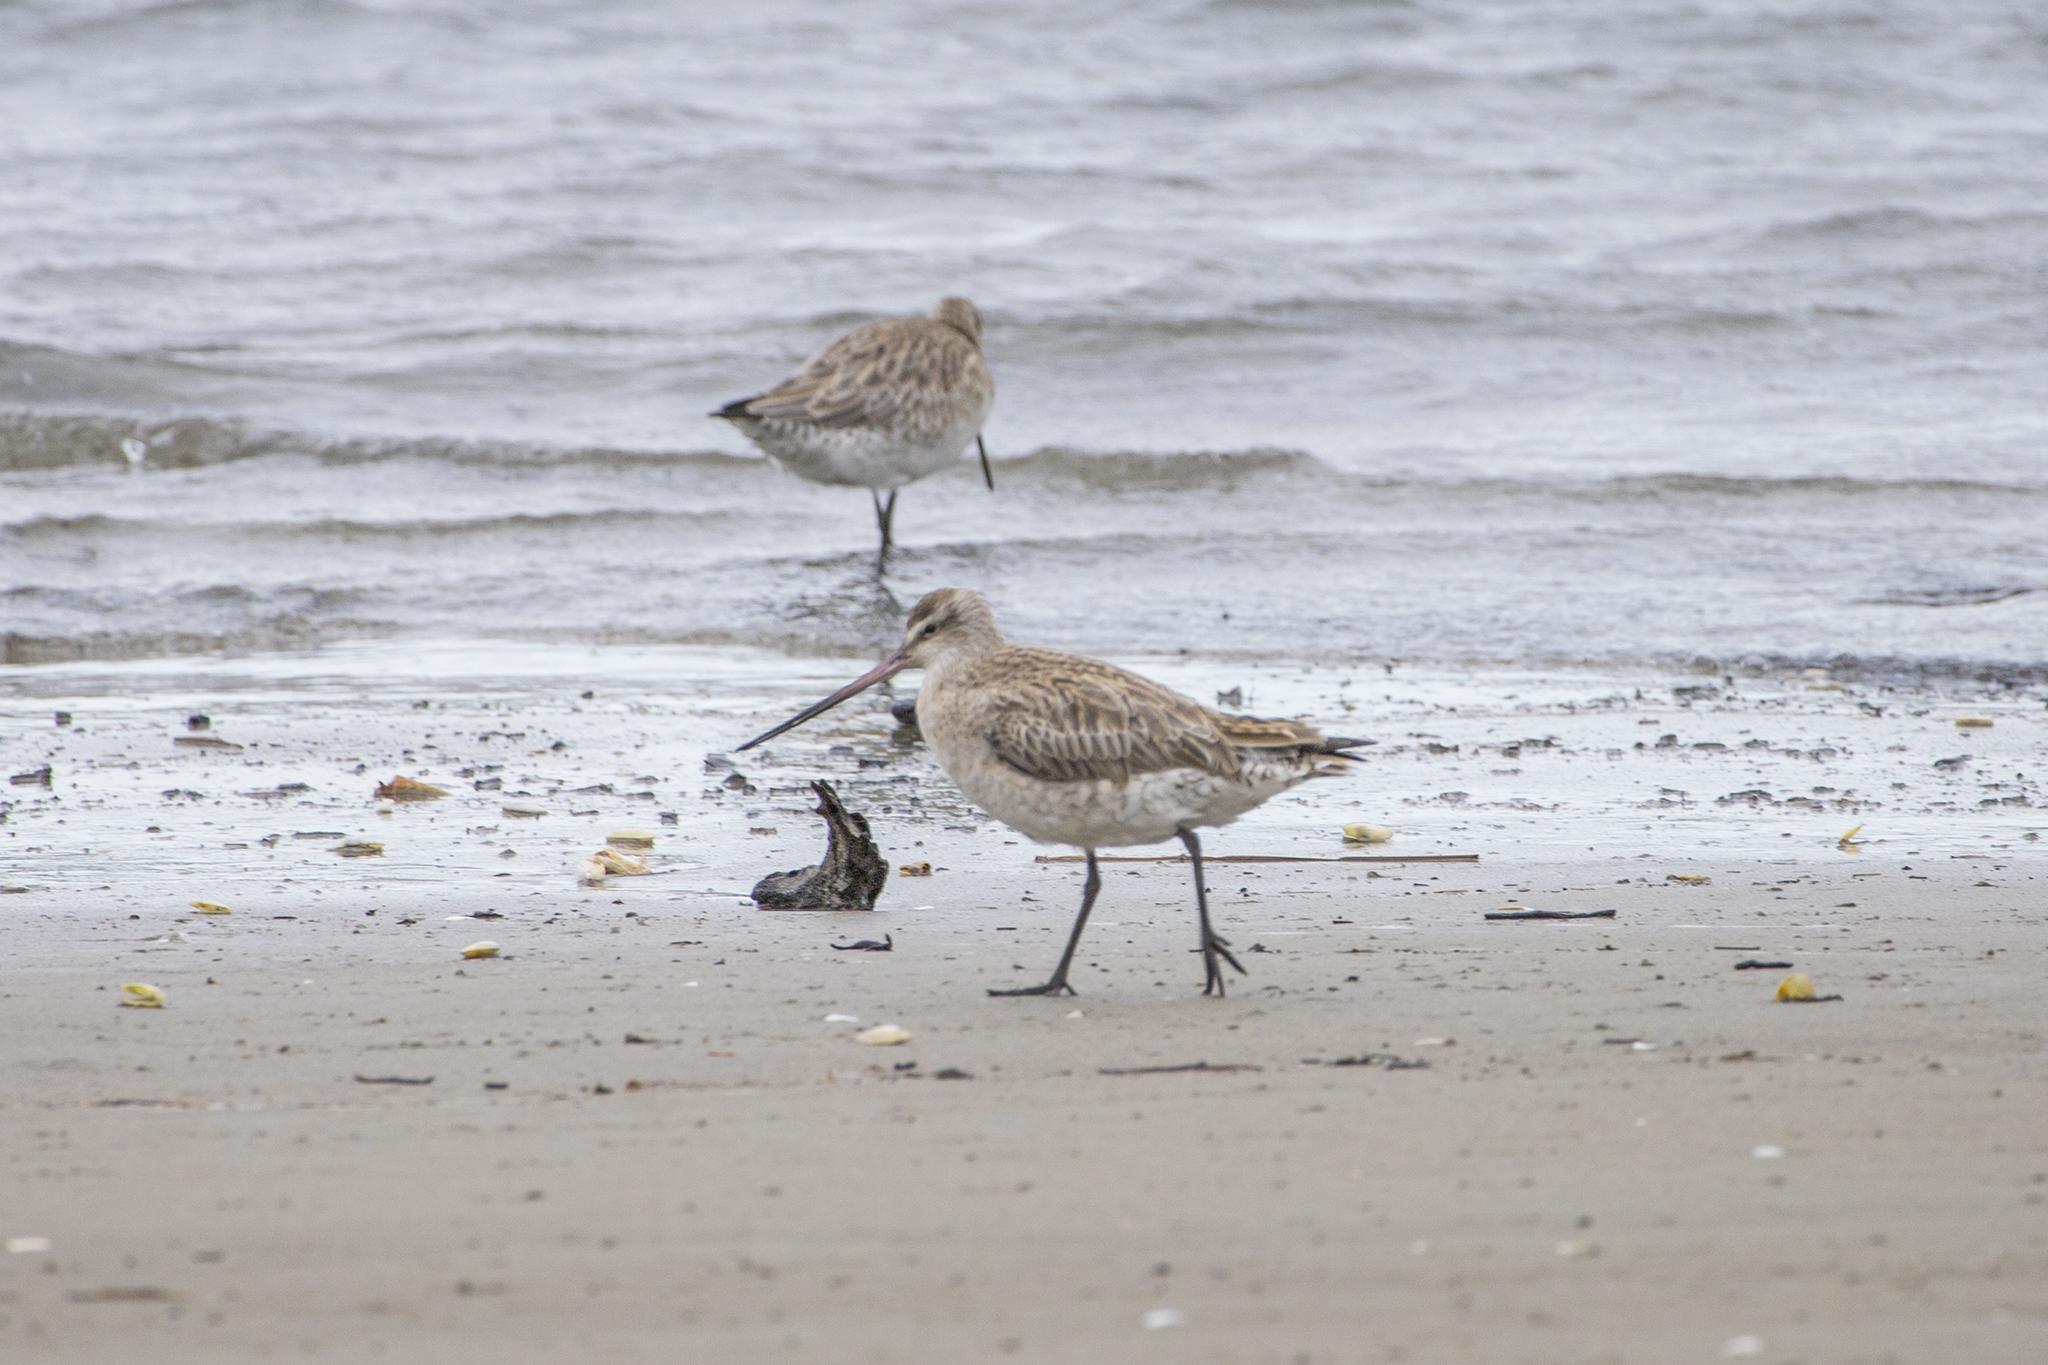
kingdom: Animalia
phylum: Chordata
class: Aves
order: Charadriiformes
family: Scolopacidae
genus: Limosa
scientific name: Limosa lapponica
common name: Bar-tailed godwit
